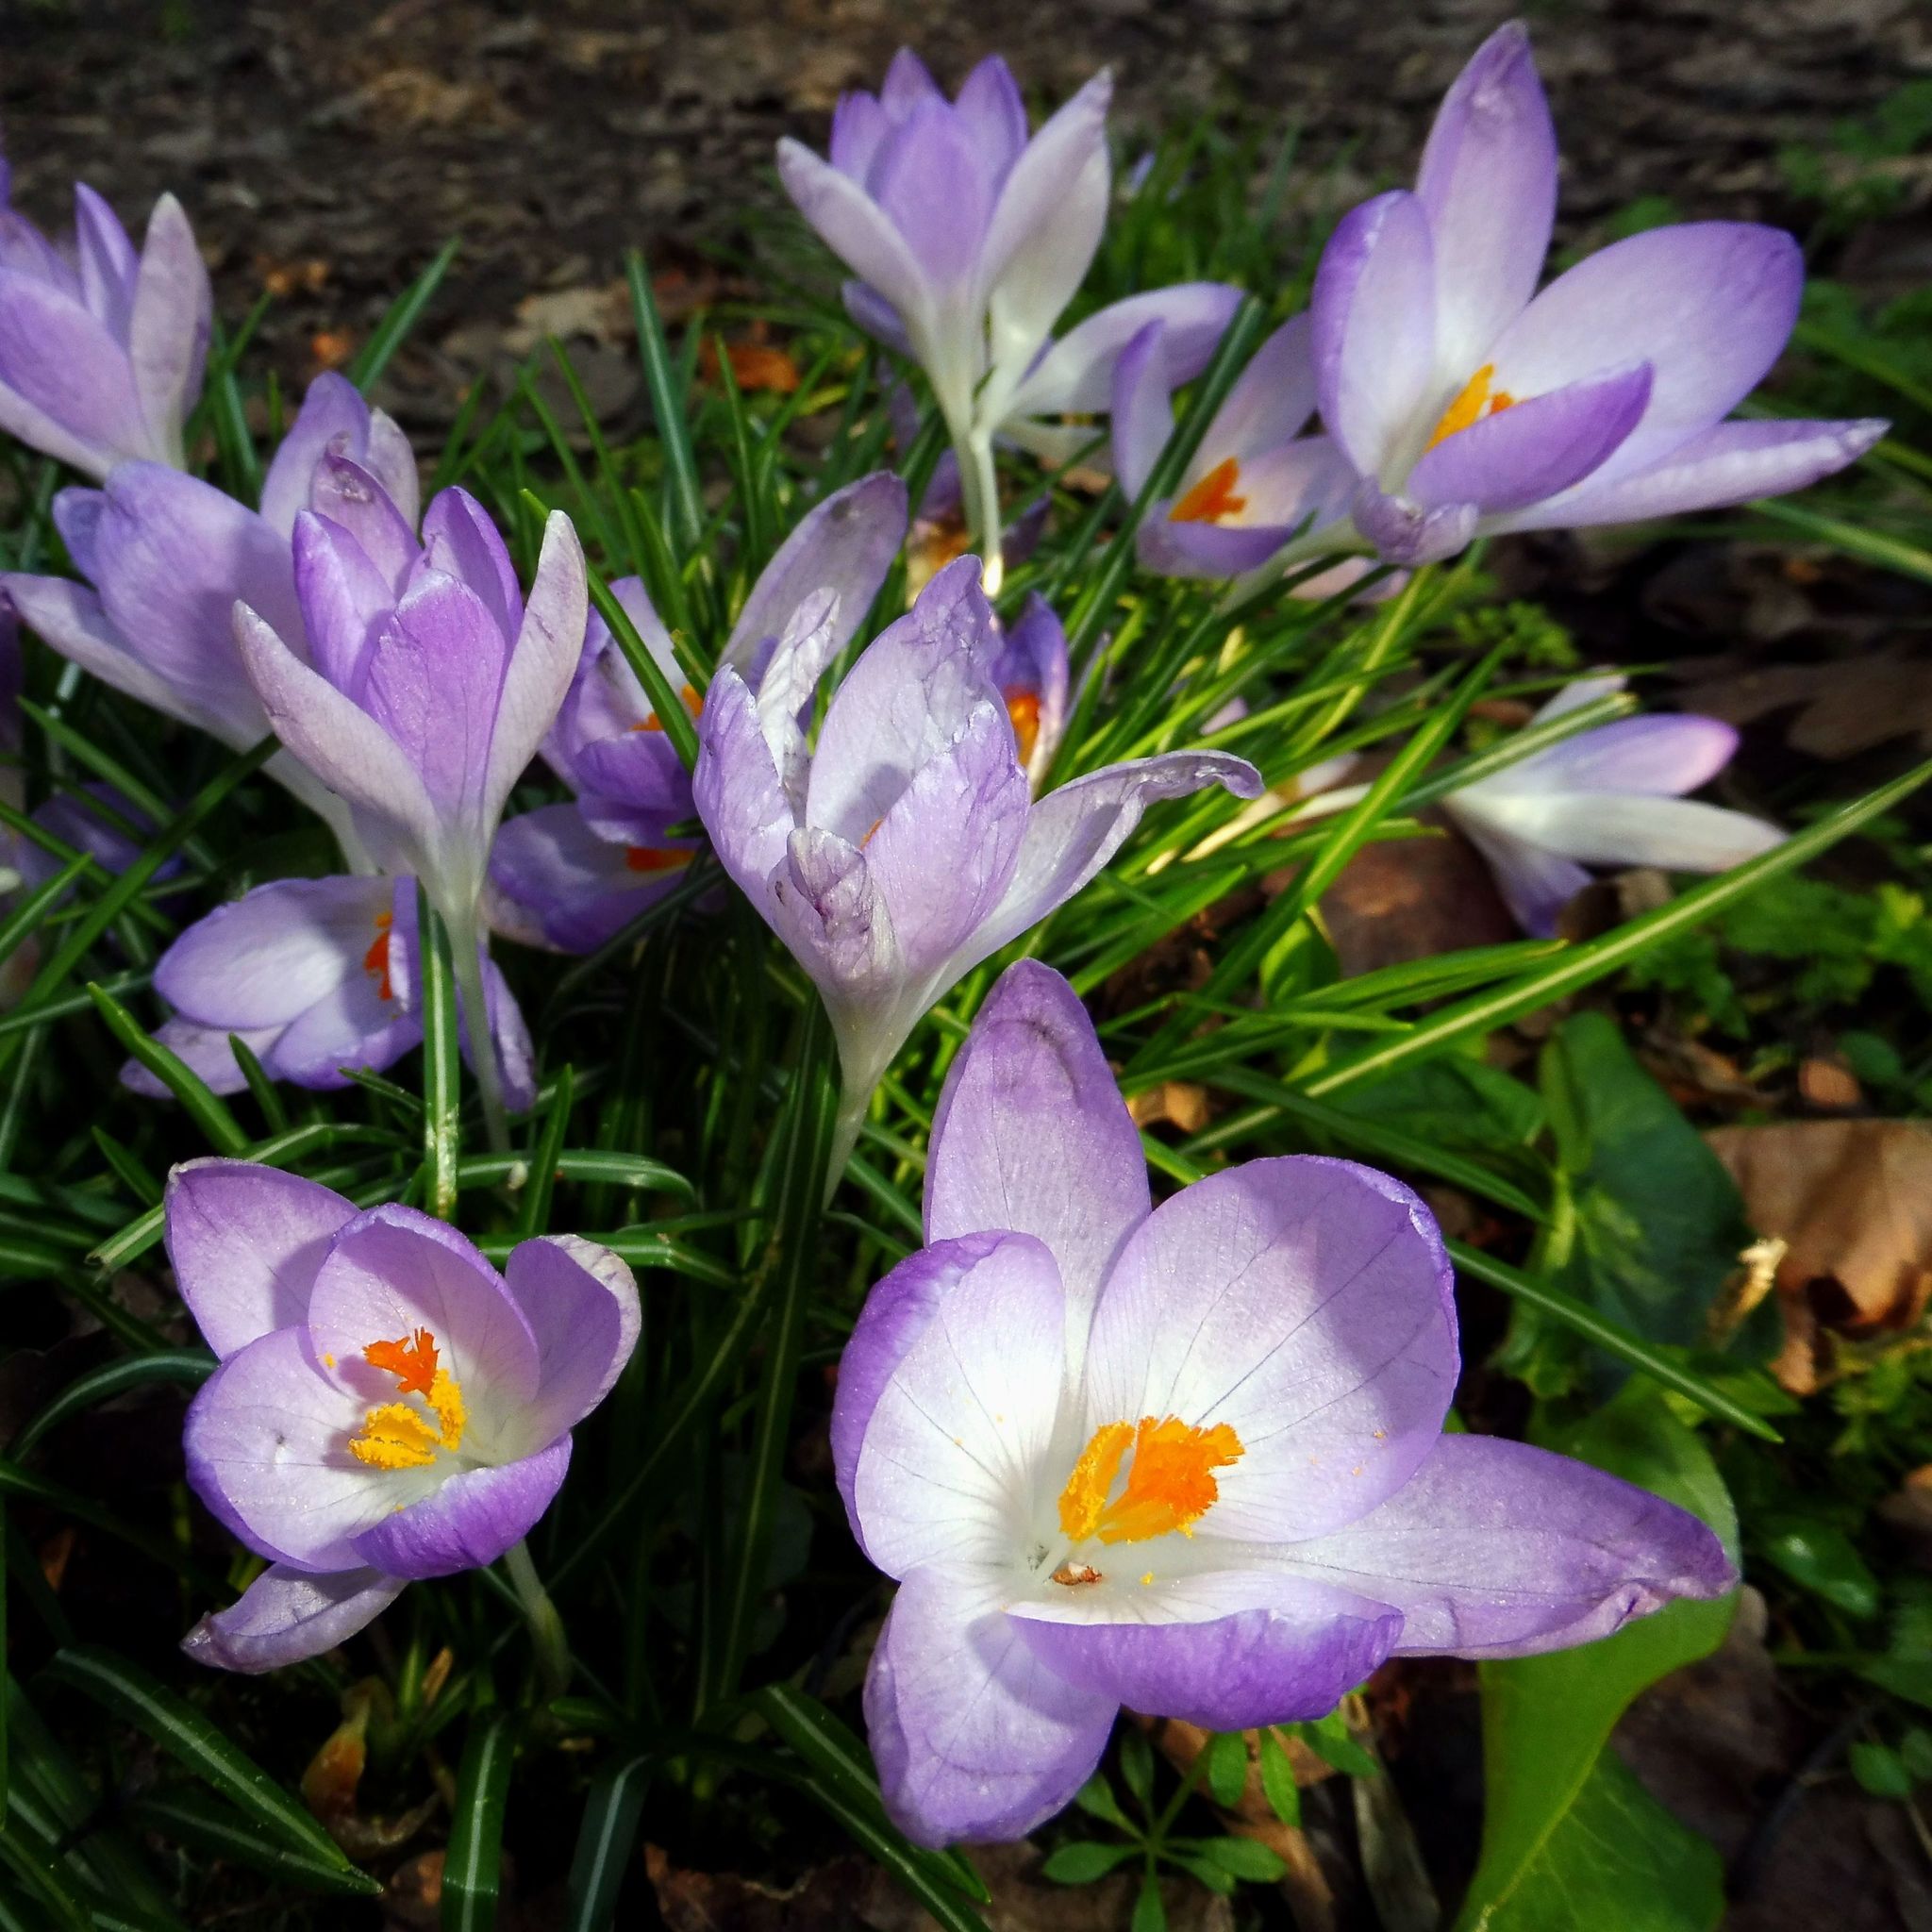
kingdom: Plantae
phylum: Tracheophyta
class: Liliopsida
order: Asparagales
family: Iridaceae
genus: Crocus
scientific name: Crocus tommasinianus
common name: Early crocus
